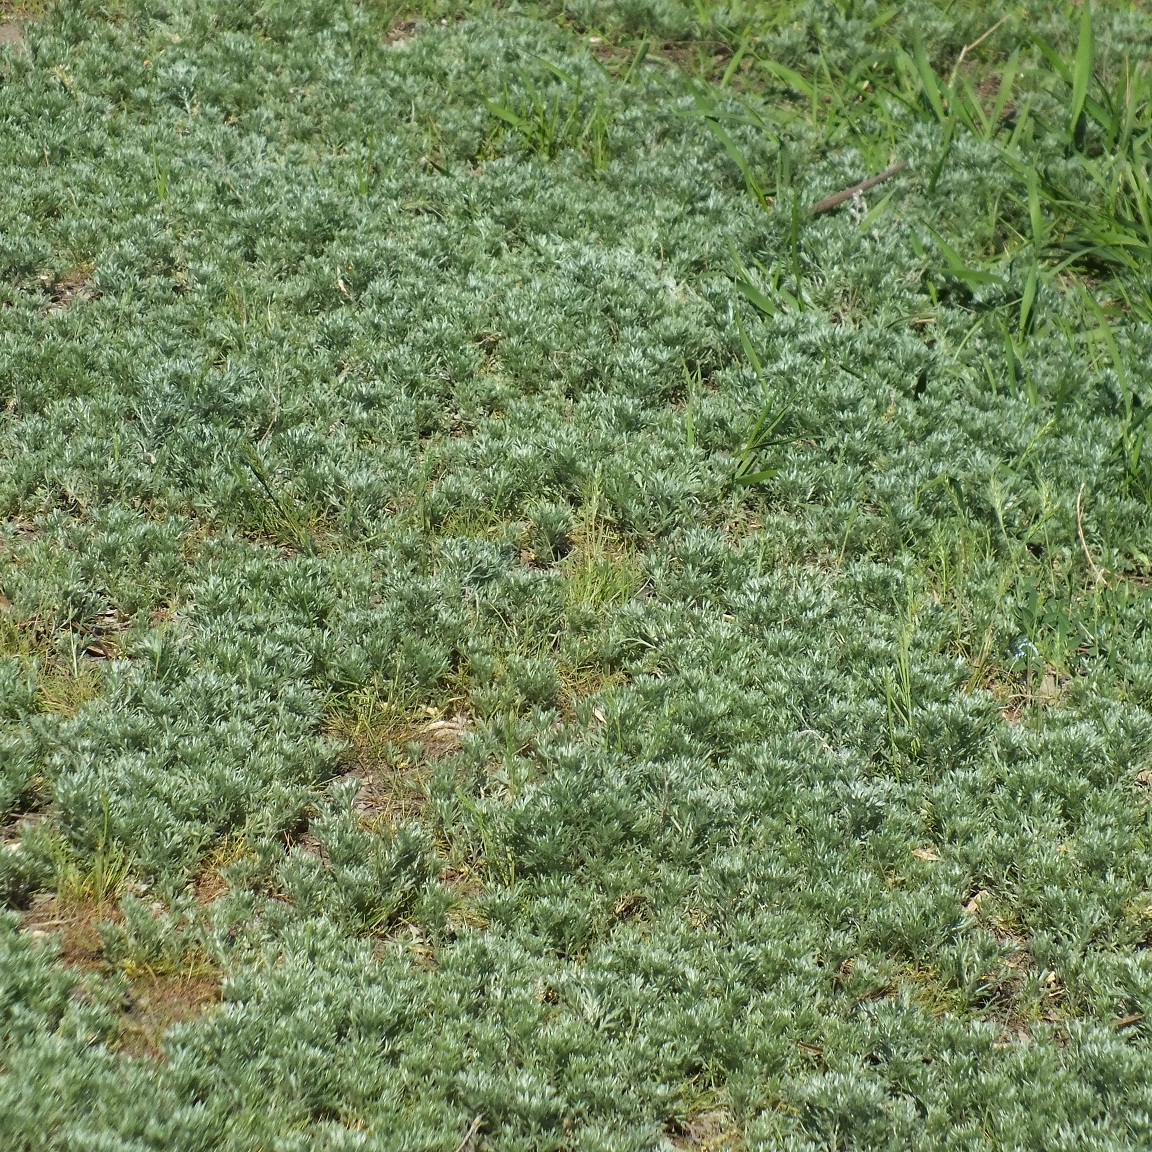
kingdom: Plantae
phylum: Tracheophyta
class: Magnoliopsida
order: Asterales
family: Asteraceae
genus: Artemisia
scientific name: Artemisia austriaca
